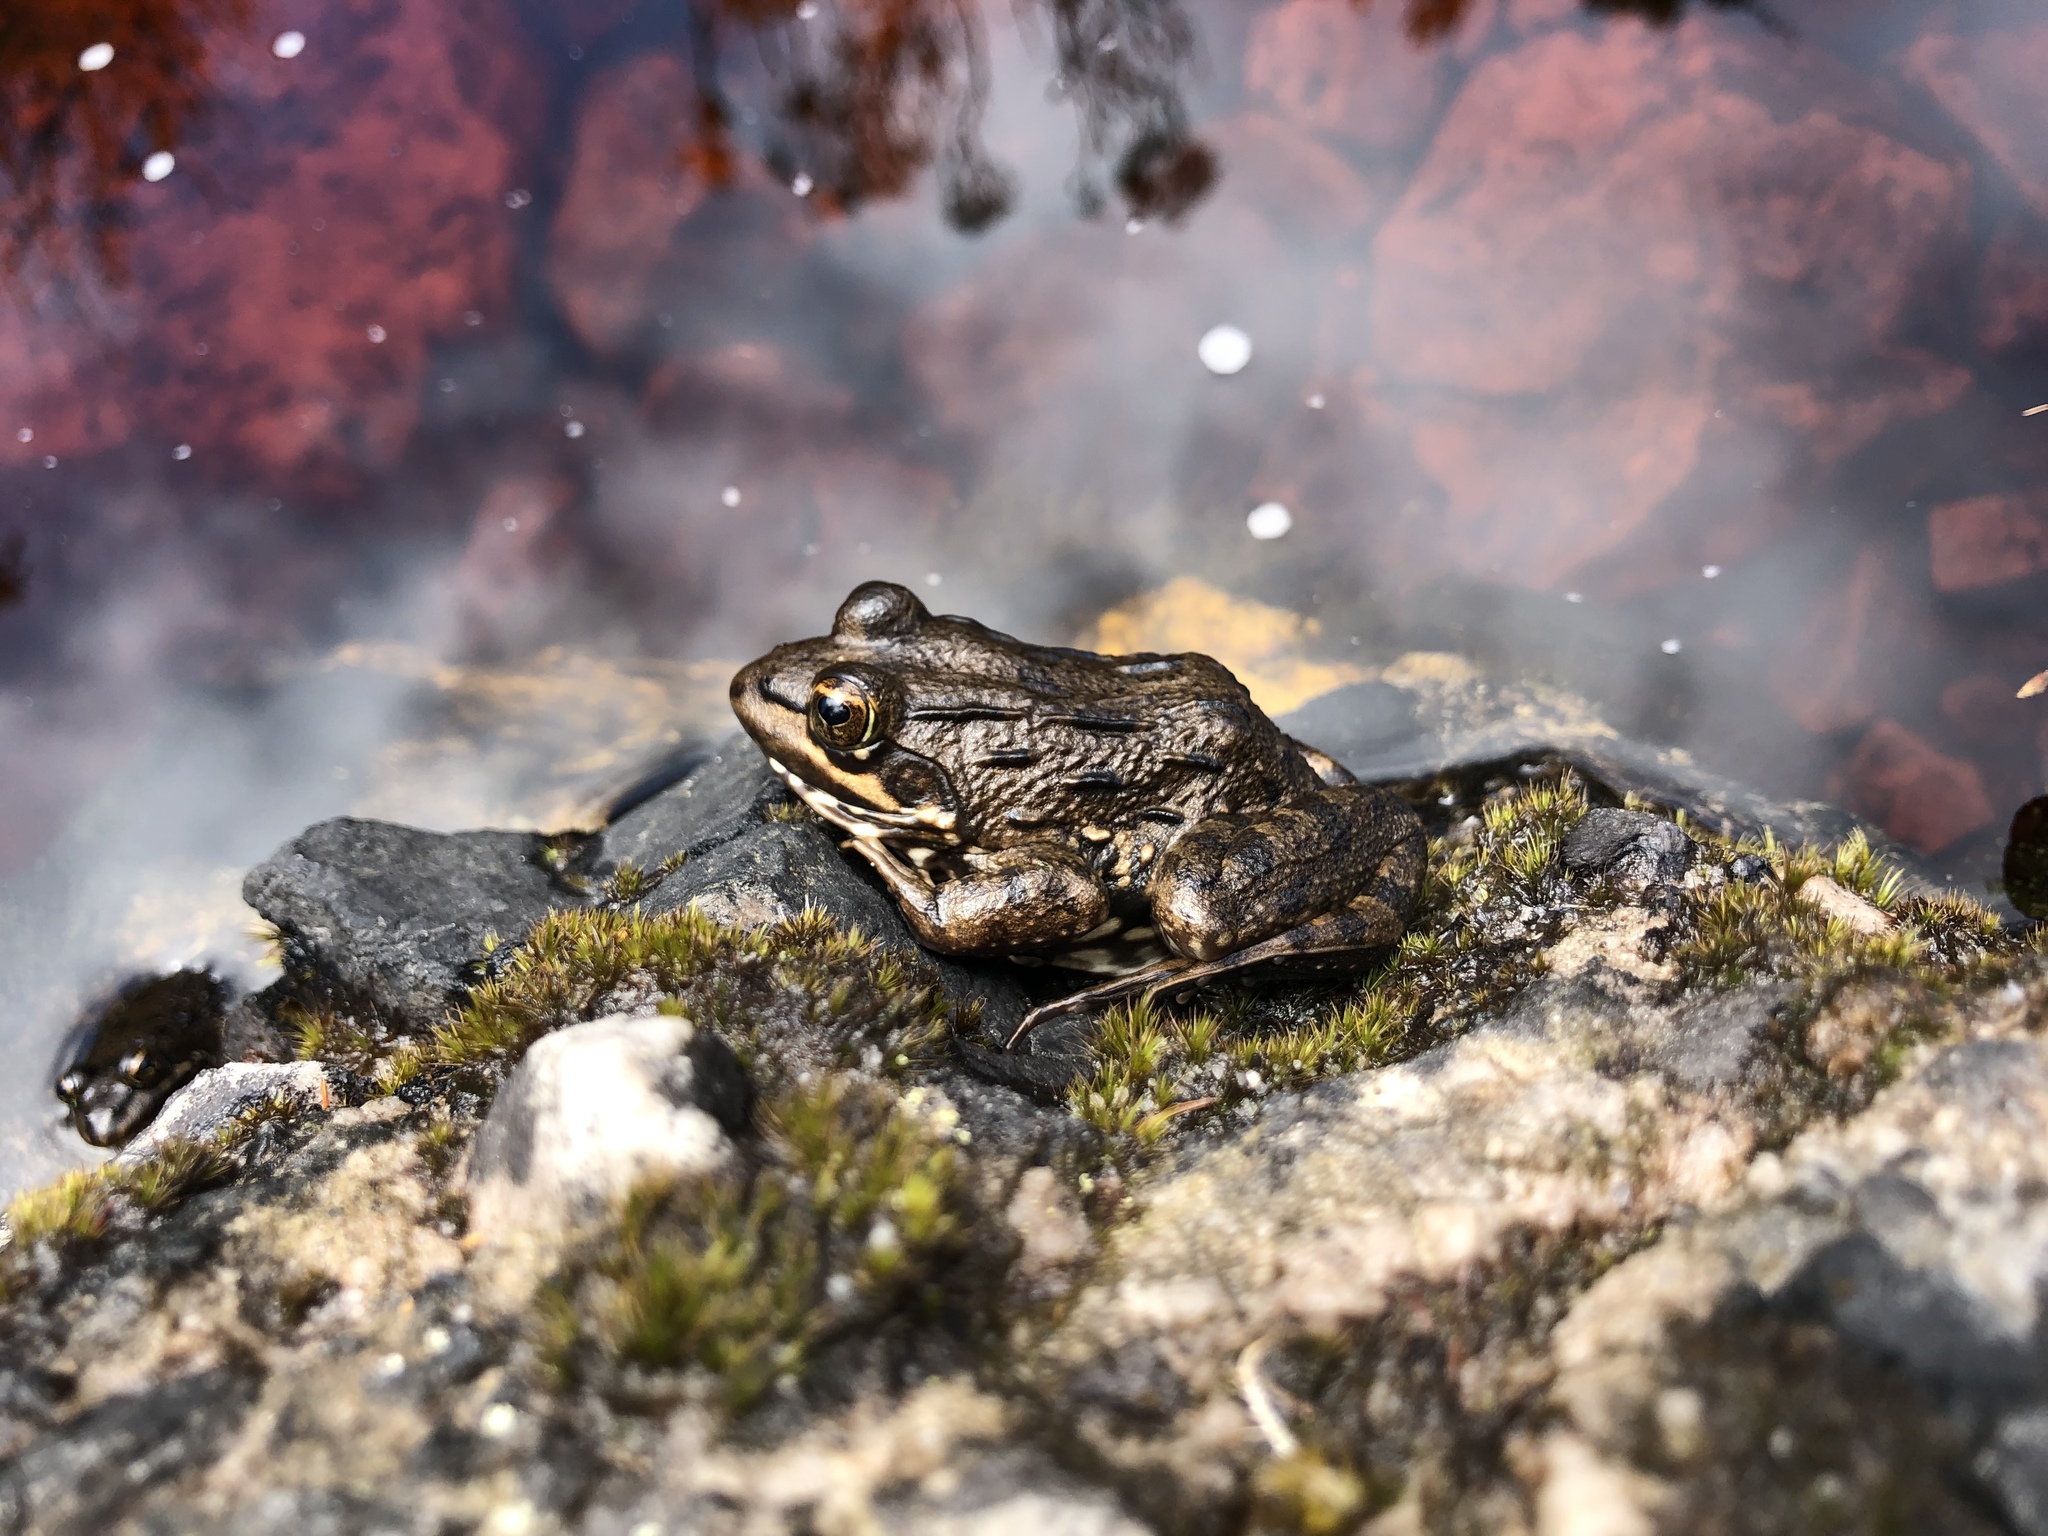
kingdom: Animalia
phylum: Chordata
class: Amphibia
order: Anura
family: Pyxicephalidae
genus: Amietia
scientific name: Amietia fuscigula
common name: Cape rana
